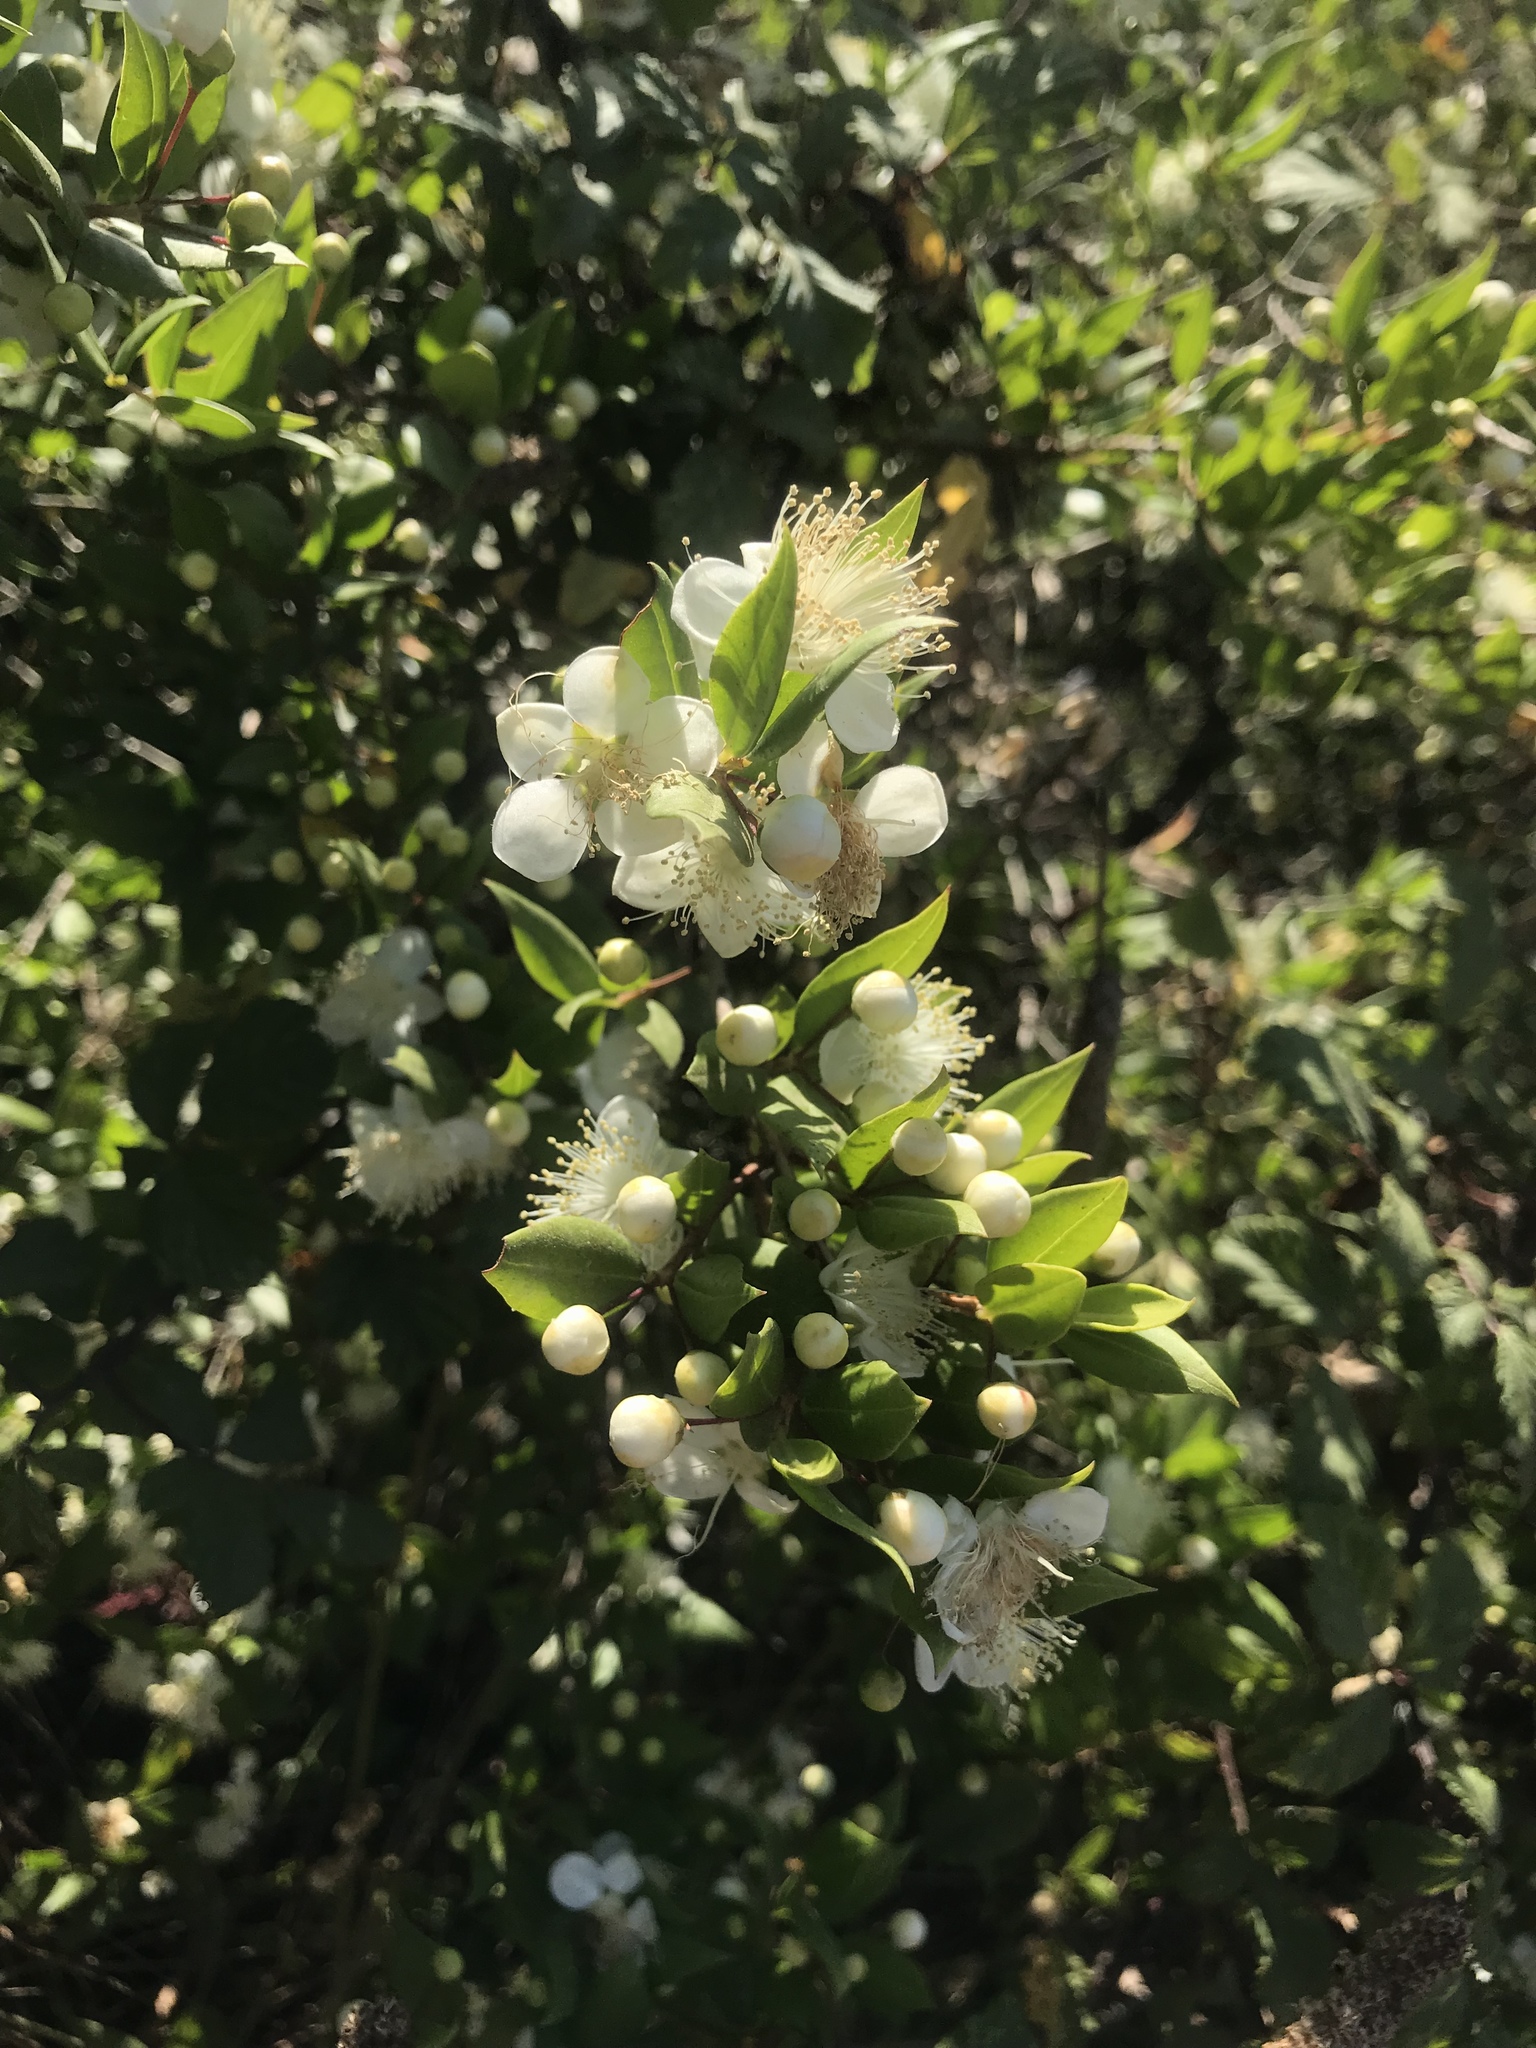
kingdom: Plantae
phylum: Tracheophyta
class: Magnoliopsida
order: Myrtales
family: Myrtaceae
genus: Myrtus
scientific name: Myrtus communis
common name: Myrtle
